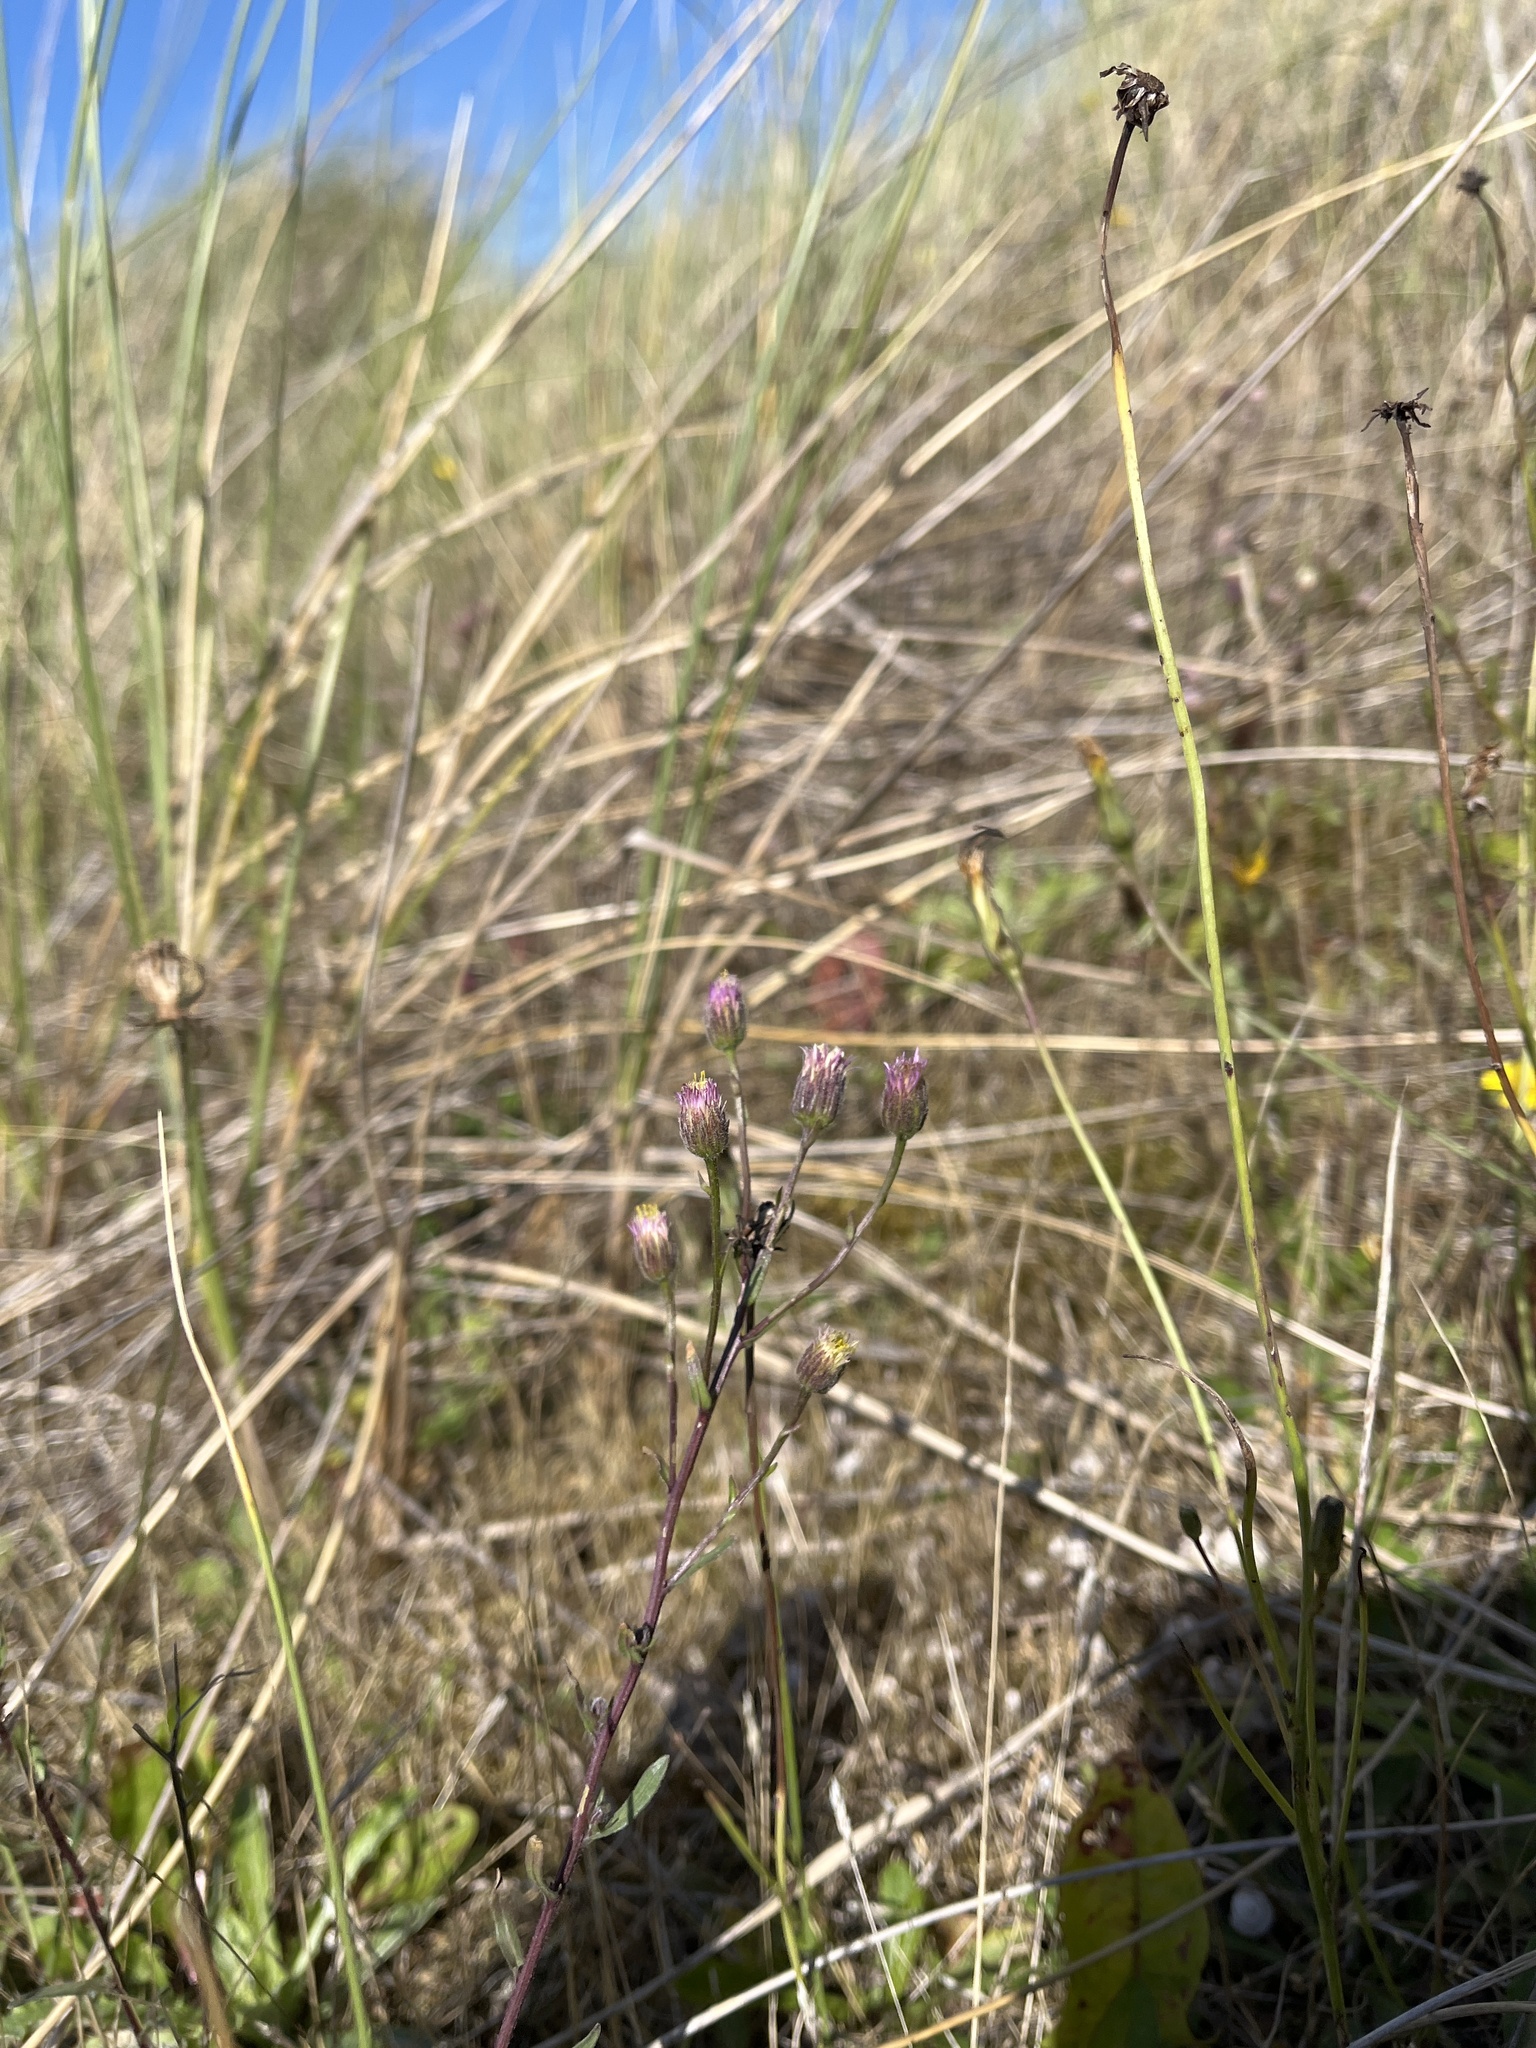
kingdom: Plantae
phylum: Tracheophyta
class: Magnoliopsida
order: Asterales
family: Asteraceae
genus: Erigeron
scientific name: Erigeron acris
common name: Blue fleabane
